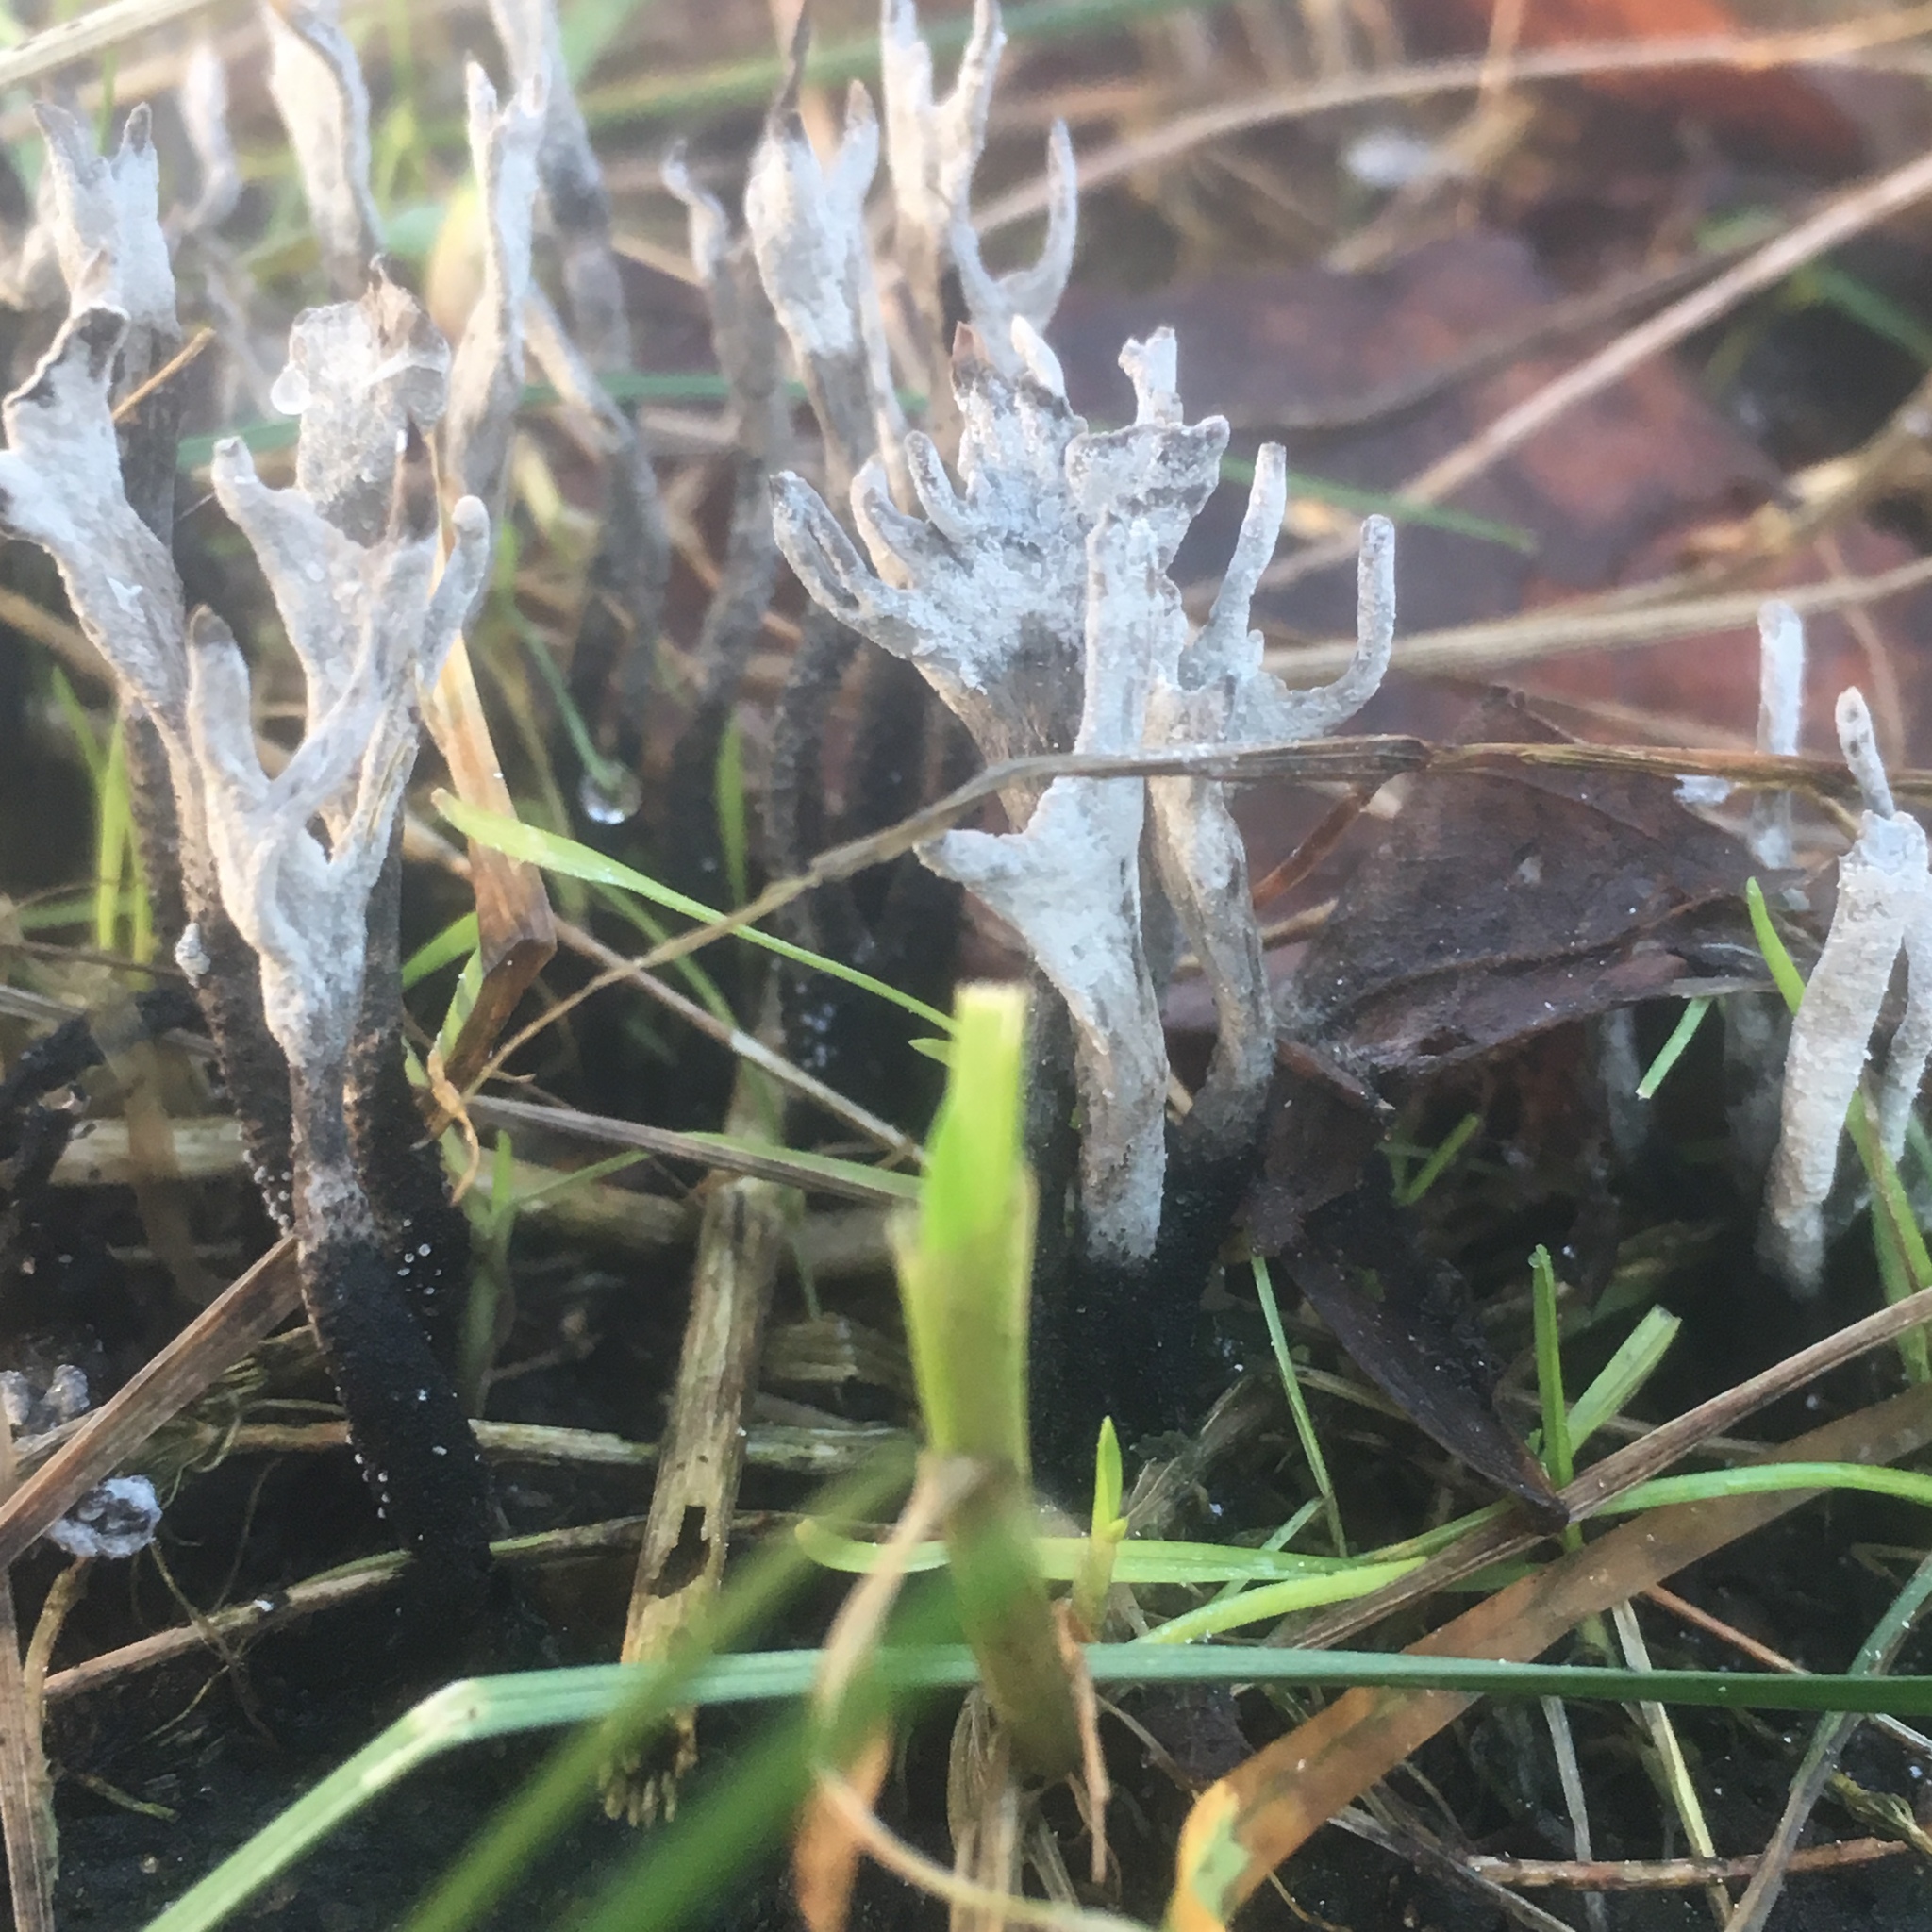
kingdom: Fungi
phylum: Ascomycota
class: Sordariomycetes
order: Xylariales
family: Xylariaceae
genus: Xylaria
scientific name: Xylaria hypoxylon
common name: Candle-snuff fungus
